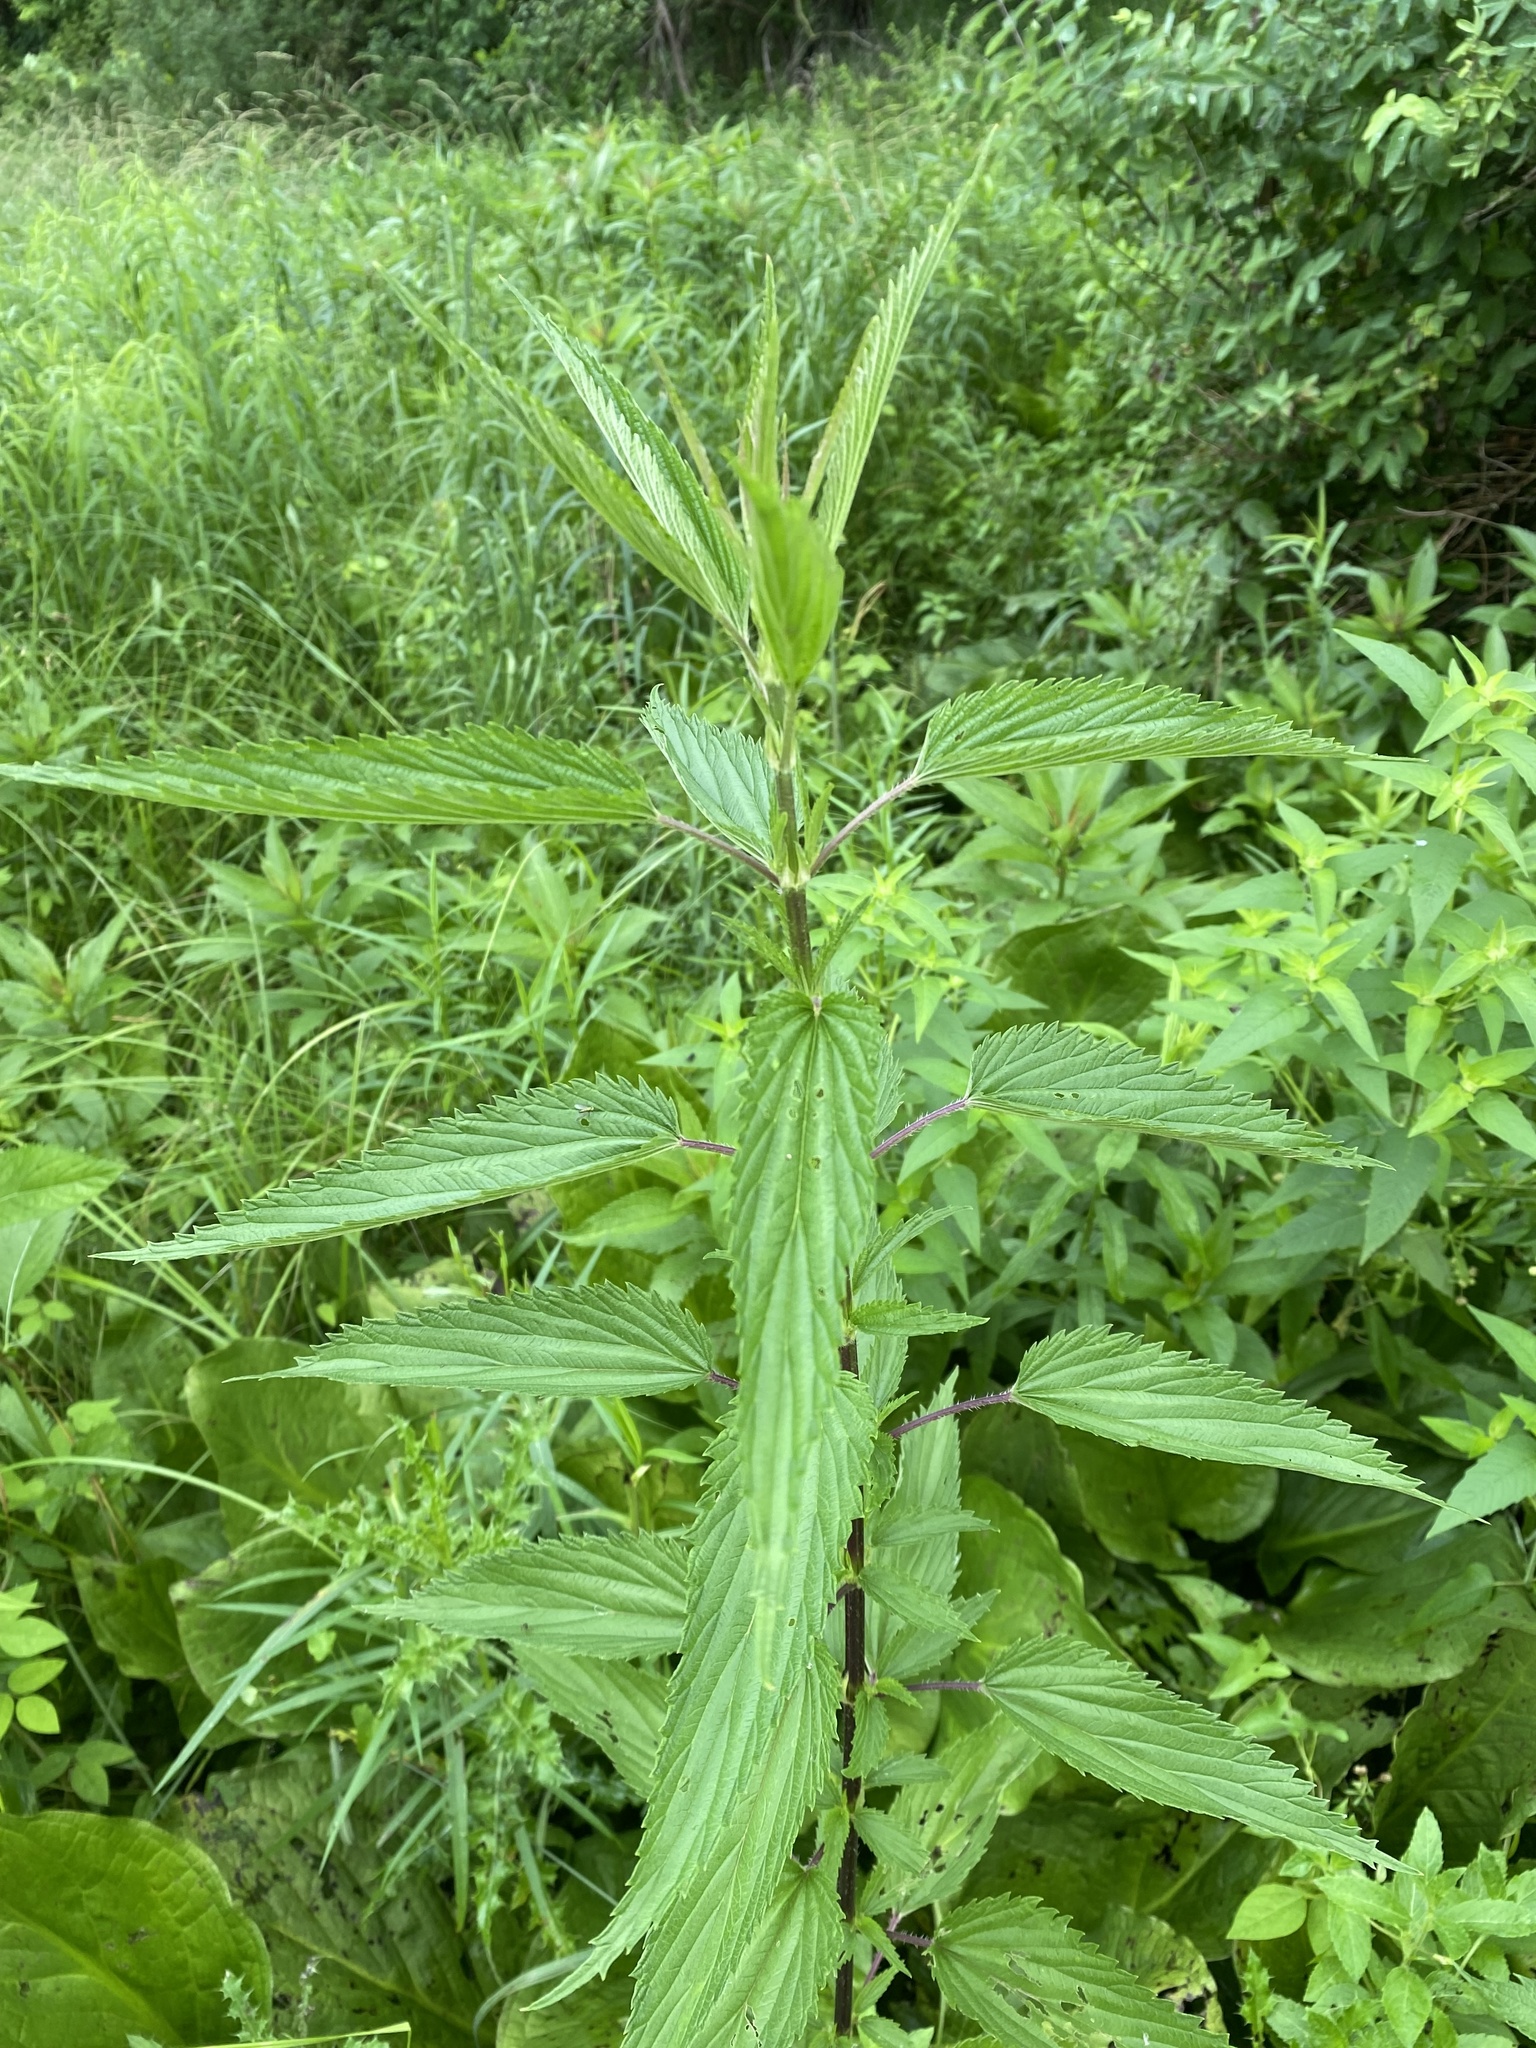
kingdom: Plantae
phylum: Tracheophyta
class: Magnoliopsida
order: Rosales
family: Urticaceae
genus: Urtica
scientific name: Urtica dioica
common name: Common nettle
